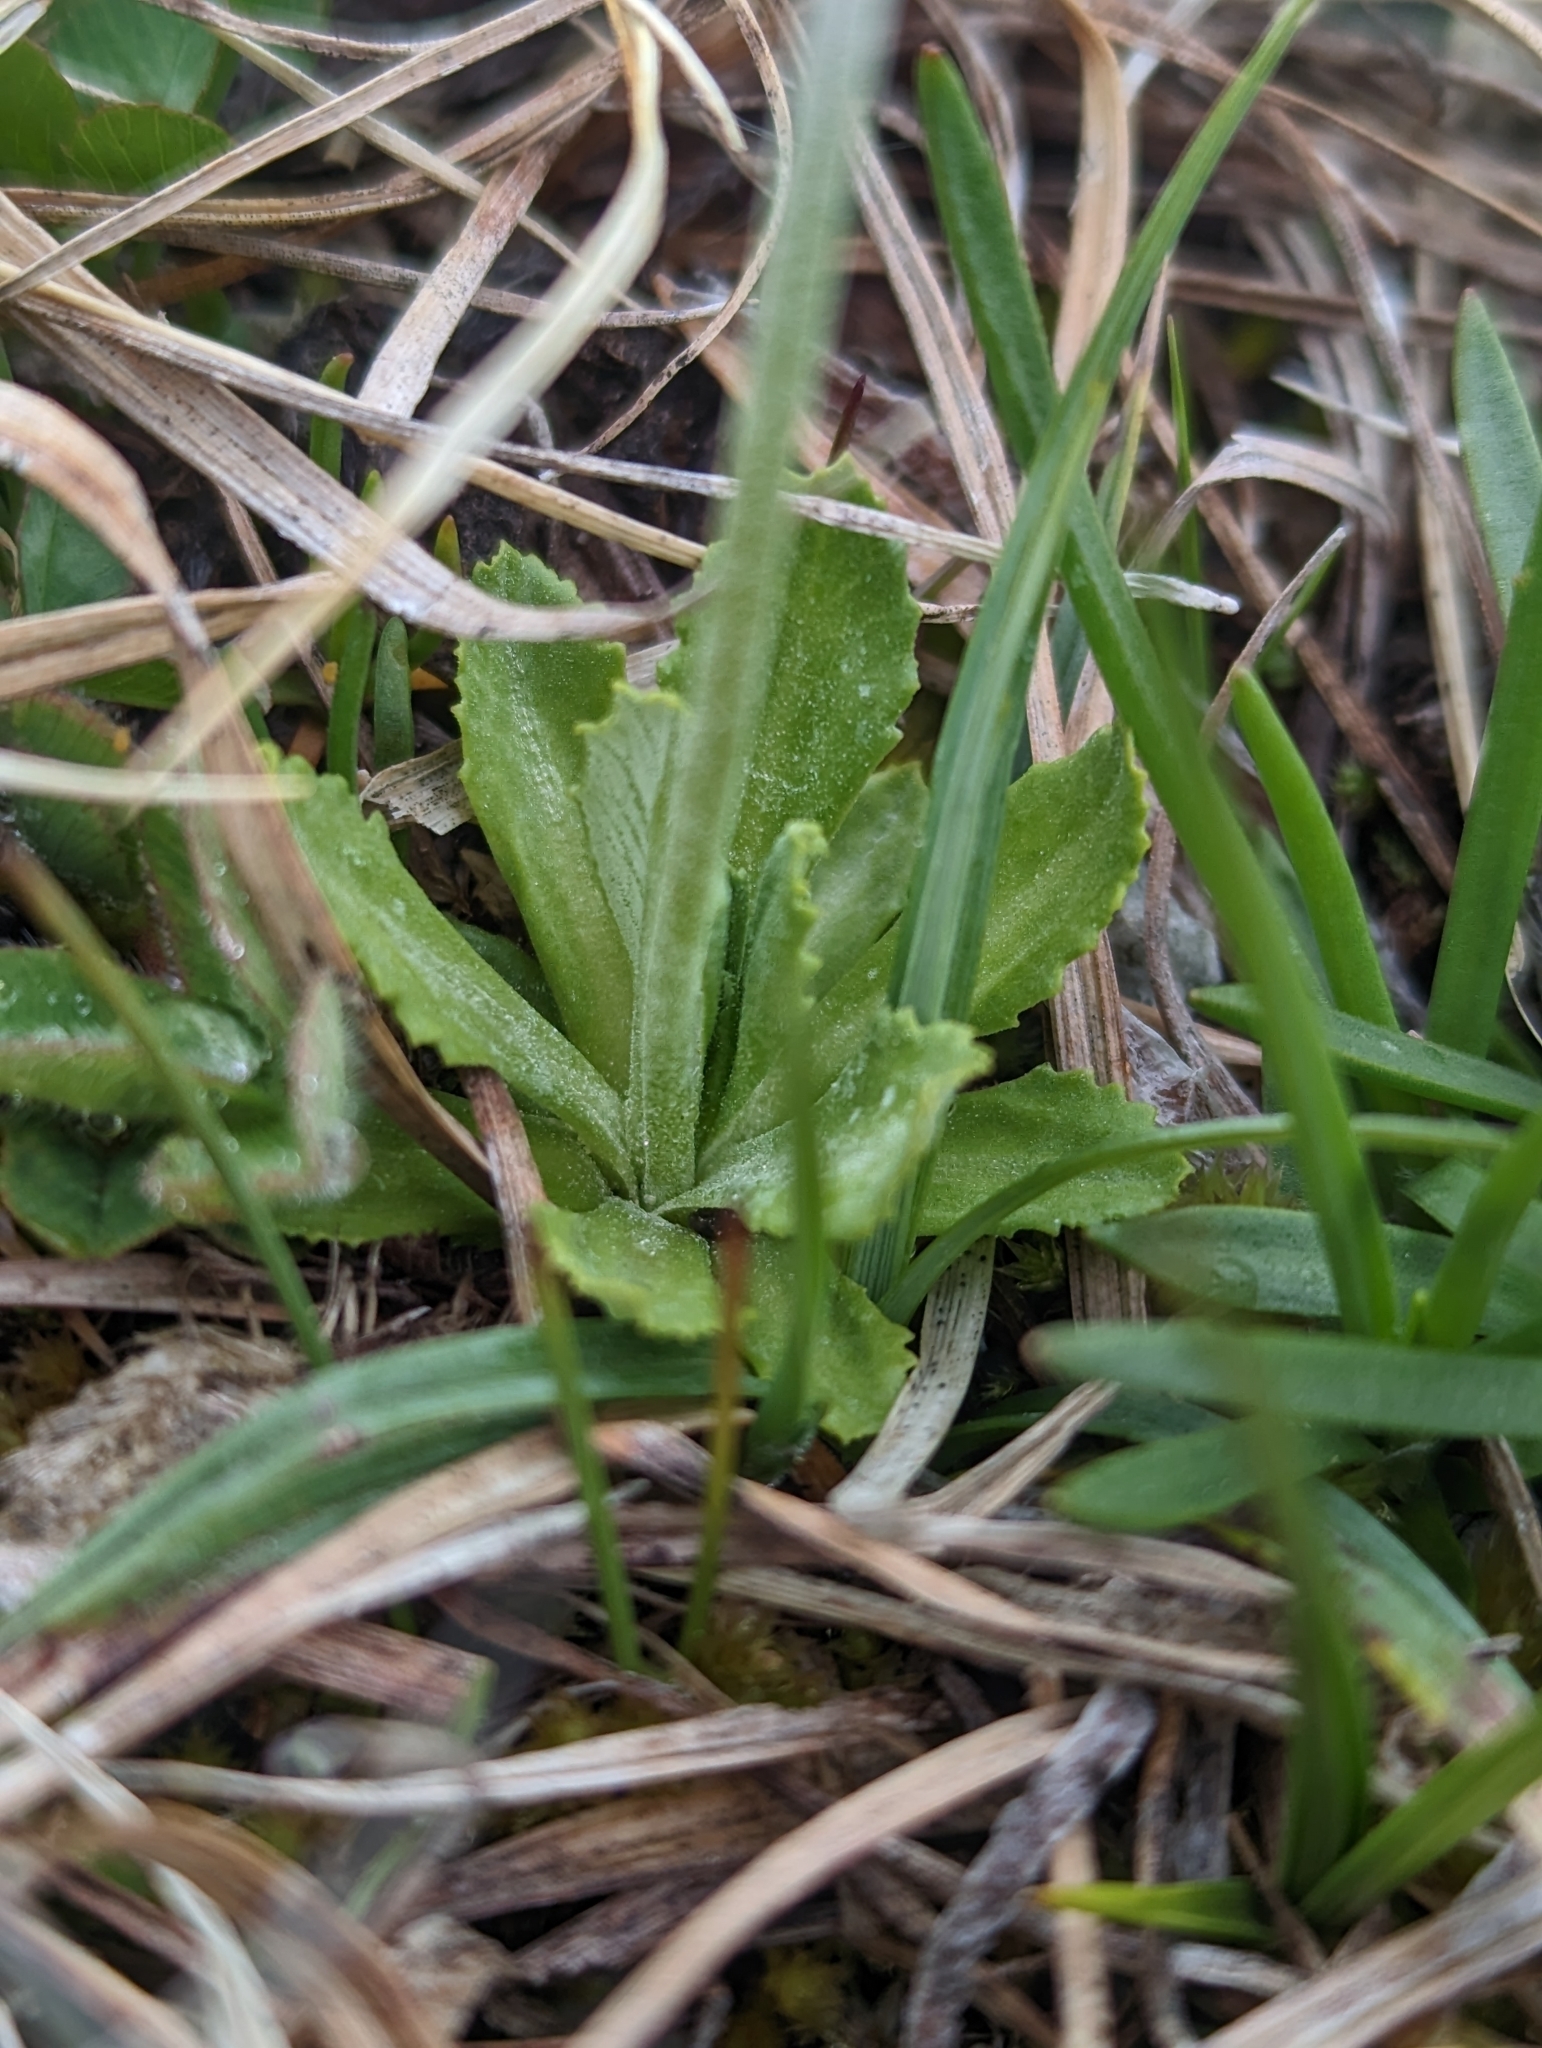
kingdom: Plantae
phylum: Tracheophyta
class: Magnoliopsida
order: Ericales
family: Primulaceae
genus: Primula
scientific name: Primula farinosa
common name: Bird's-eye primrose
